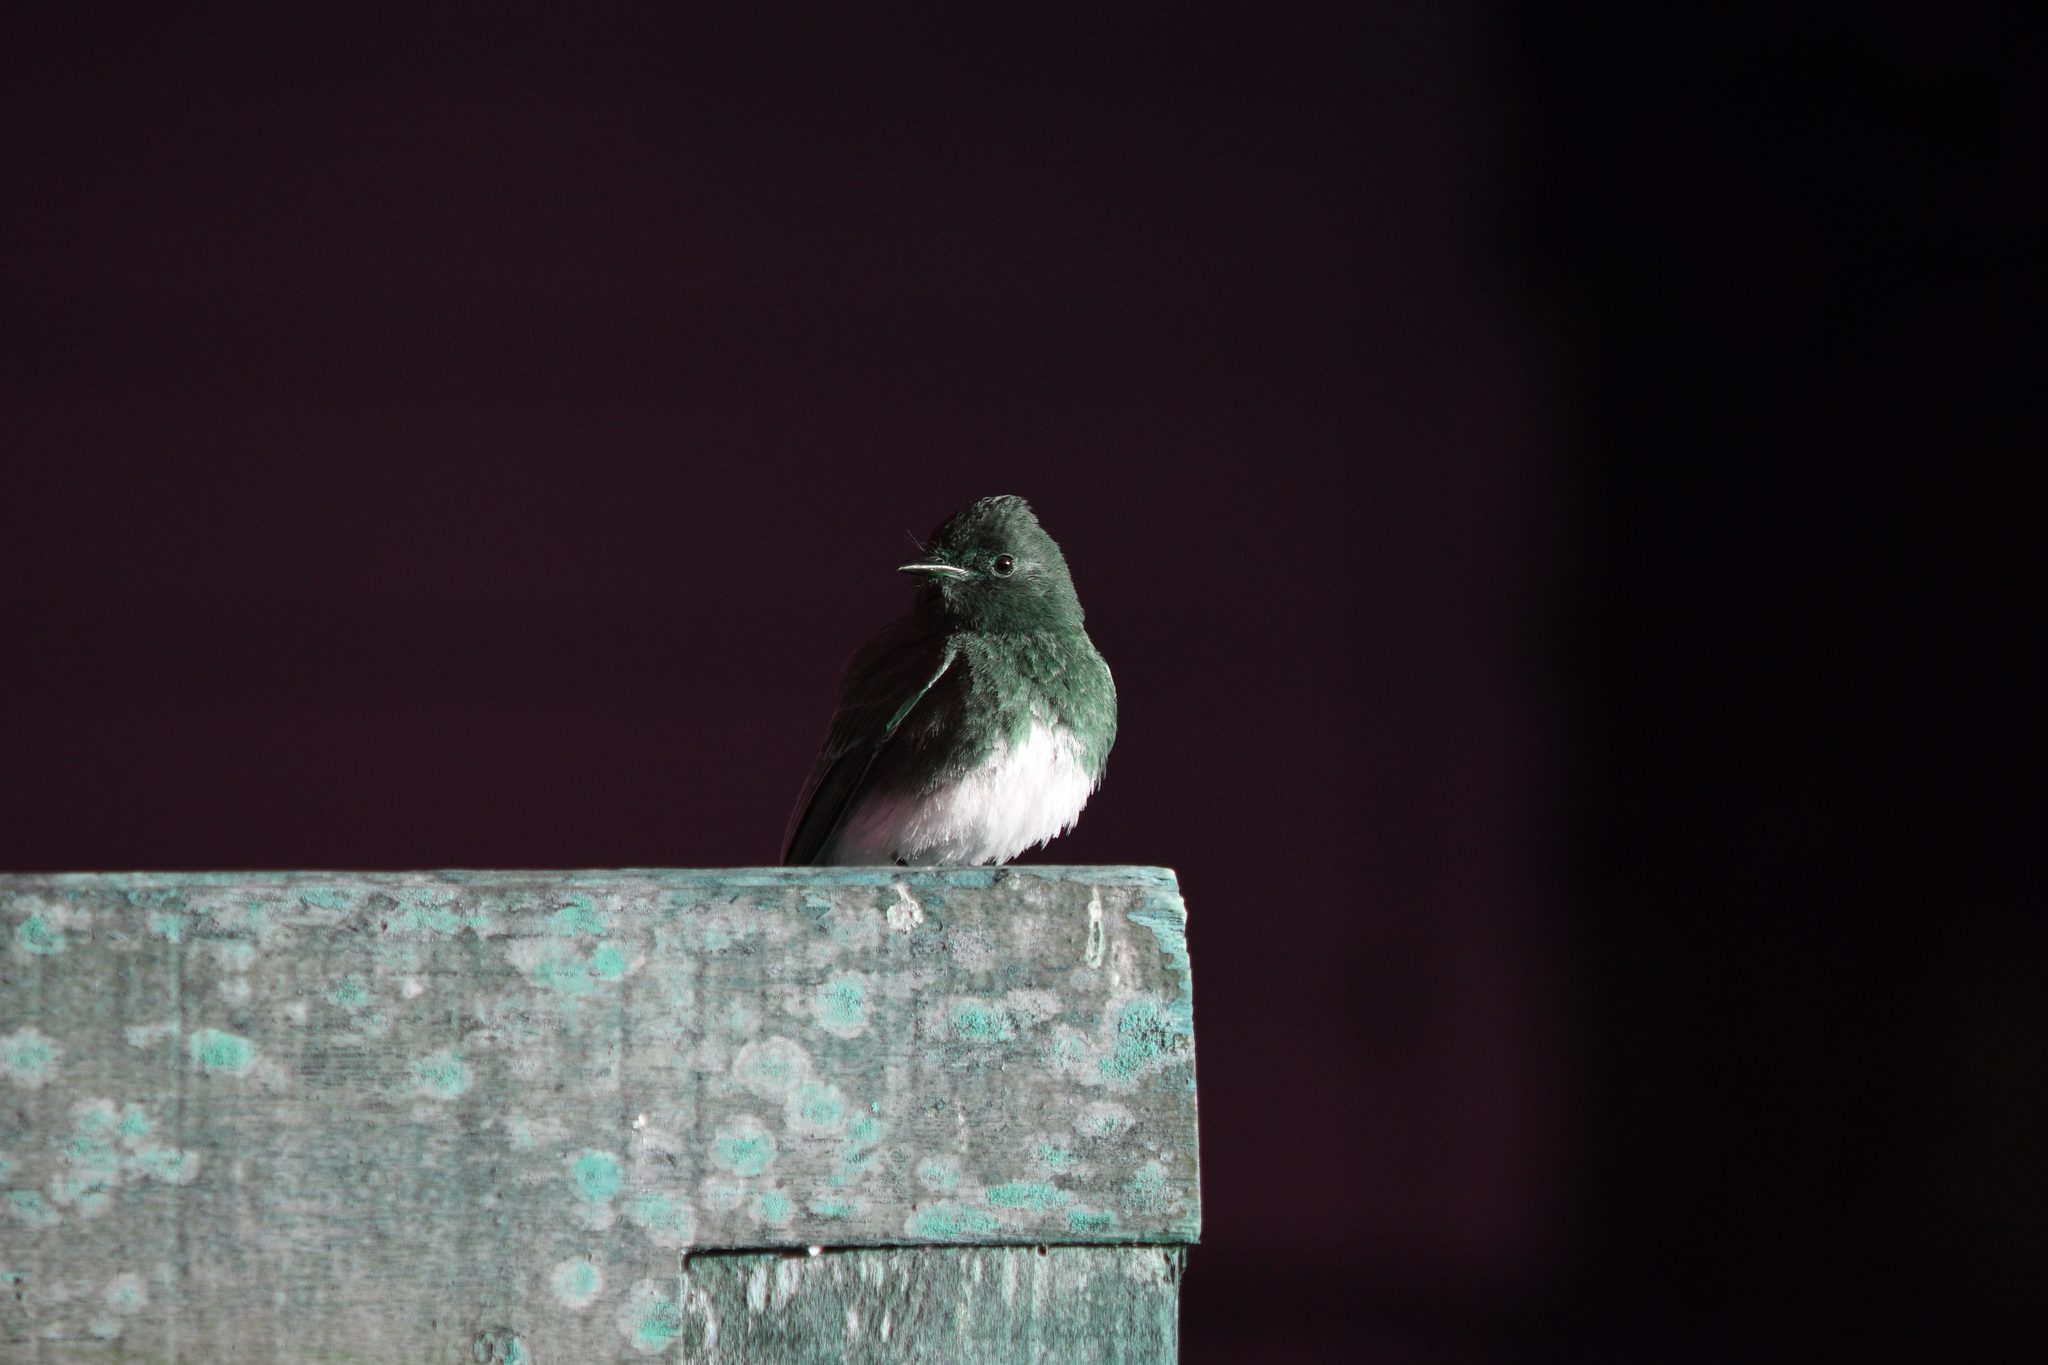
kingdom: Animalia
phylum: Chordata
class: Aves
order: Passeriformes
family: Tyrannidae
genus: Sayornis
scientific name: Sayornis nigricans
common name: Black phoebe
